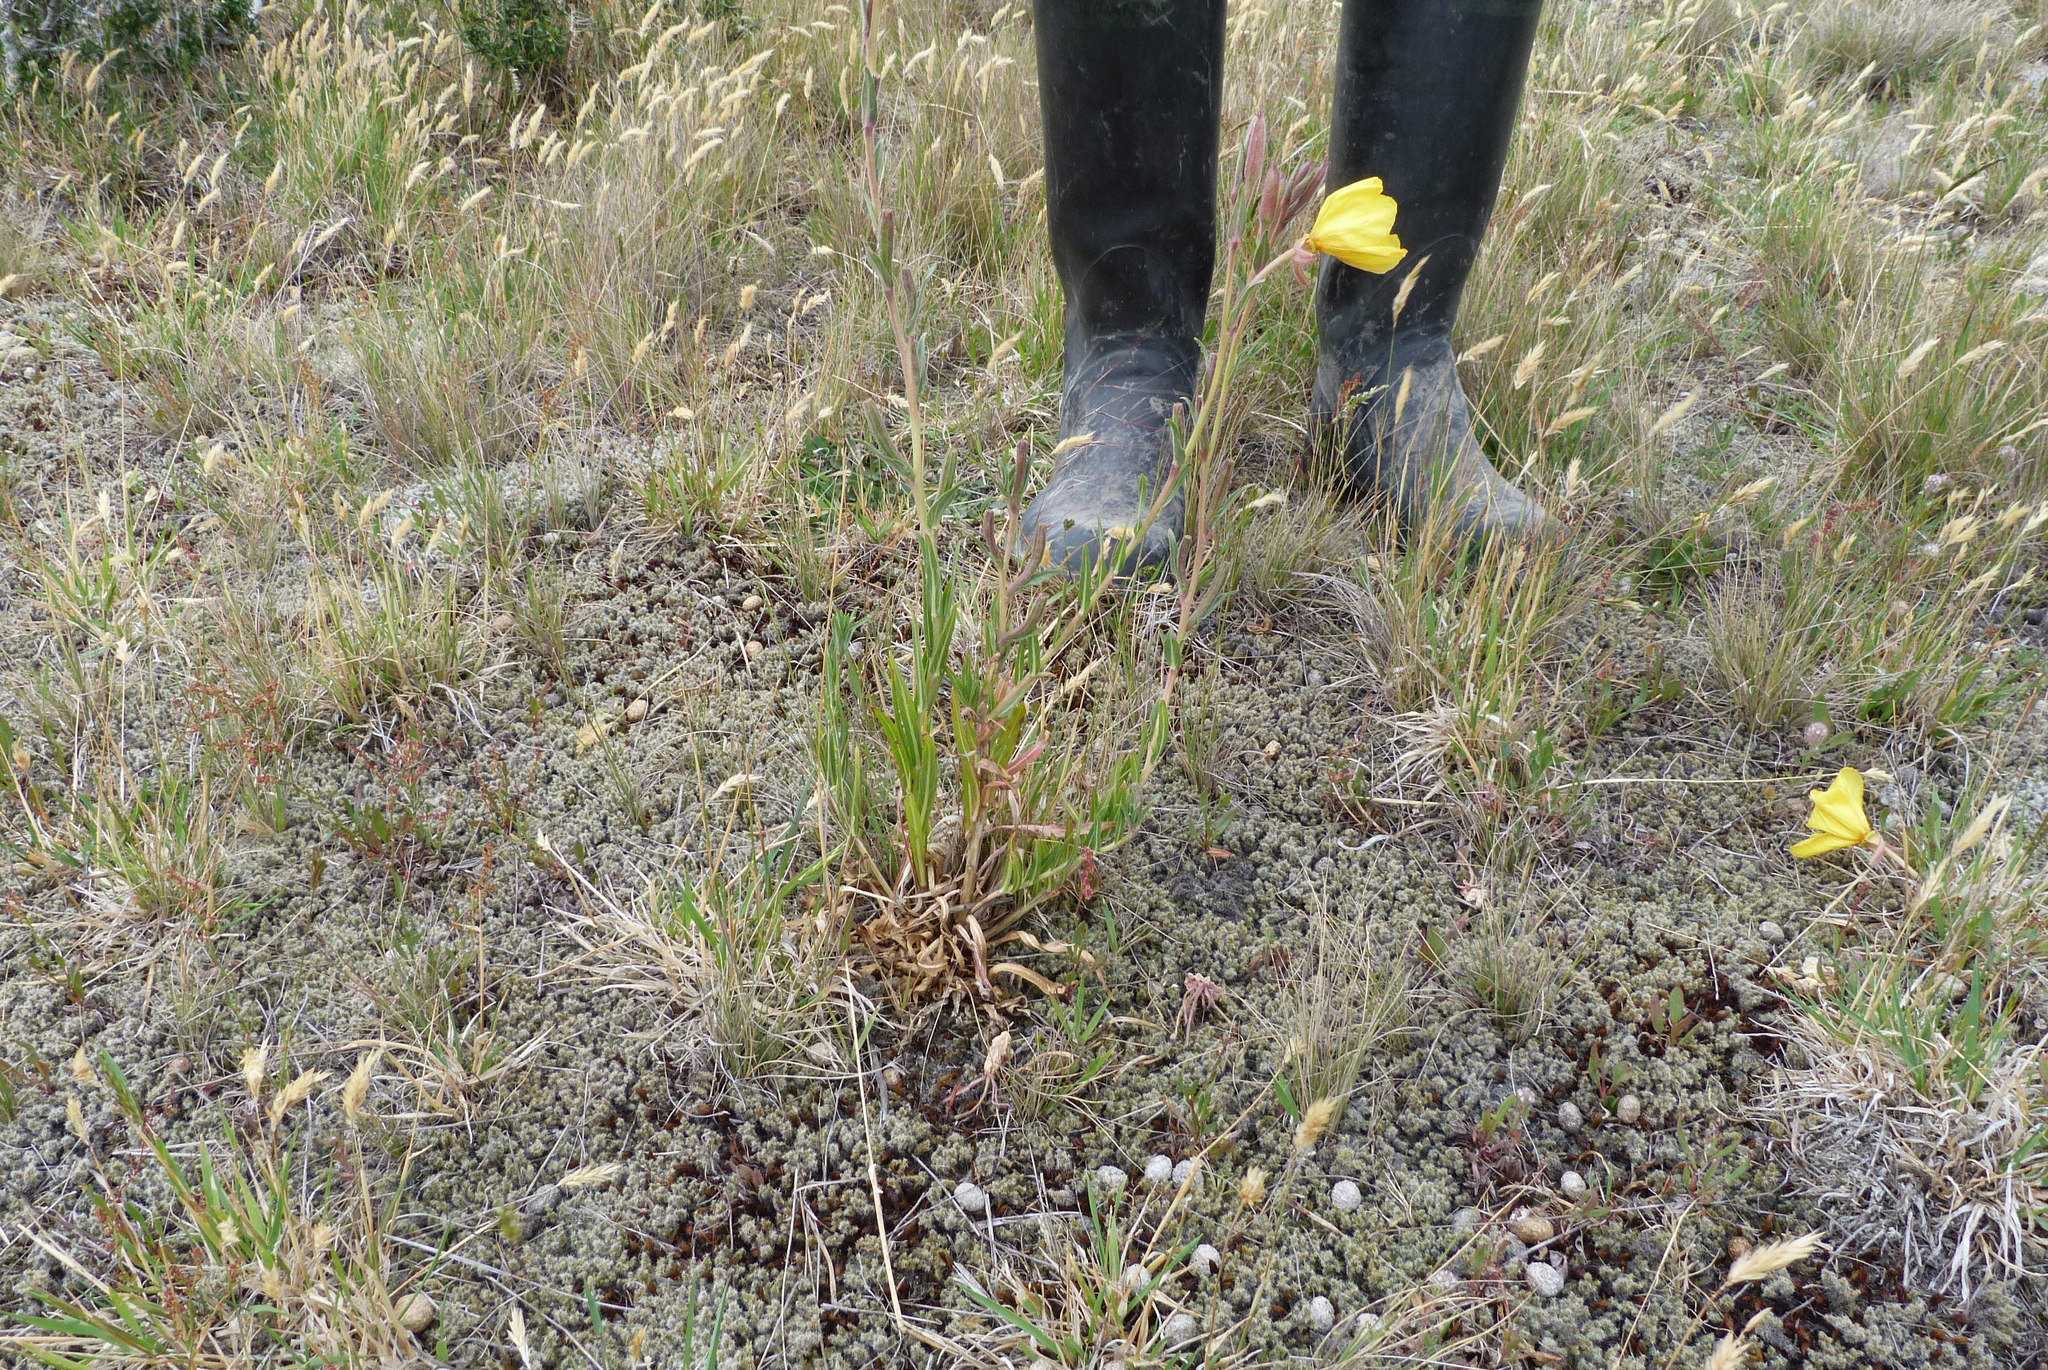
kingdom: Plantae
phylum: Tracheophyta
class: Magnoliopsida
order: Myrtales
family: Onagraceae
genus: Oenothera
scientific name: Oenothera stricta
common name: Fragrant evening-primrose
